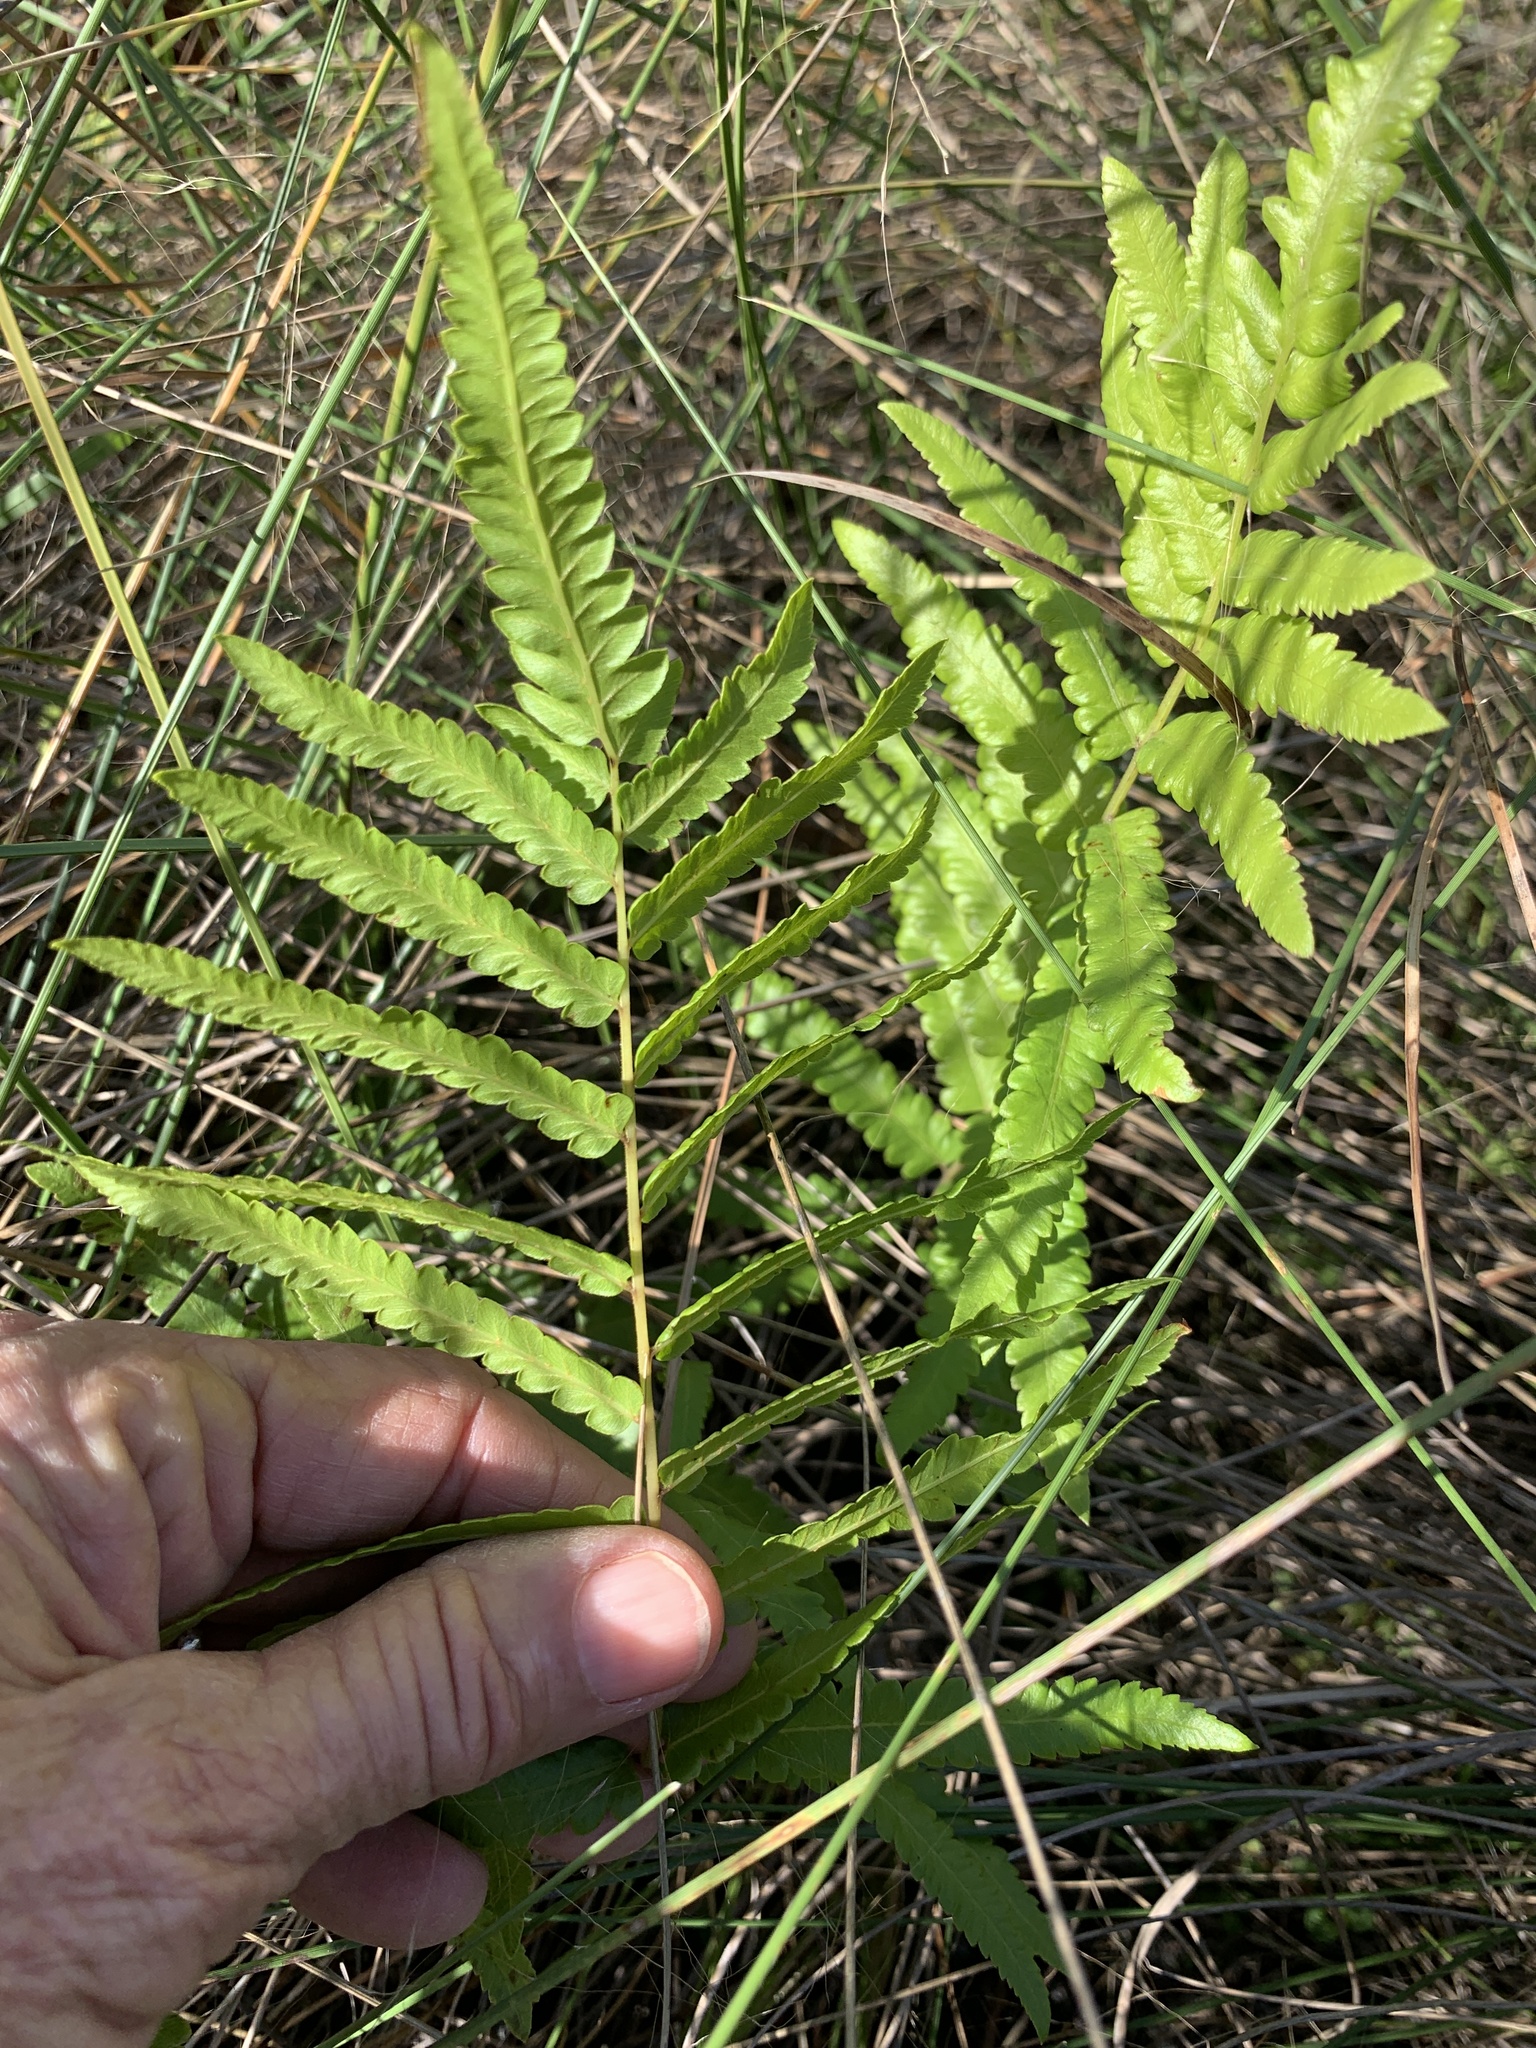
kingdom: Plantae
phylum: Tracheophyta
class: Polypodiopsida
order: Polypodiales
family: Thelypteridaceae
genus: Cyclosorus
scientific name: Cyclosorus interruptus
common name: Neke fern
